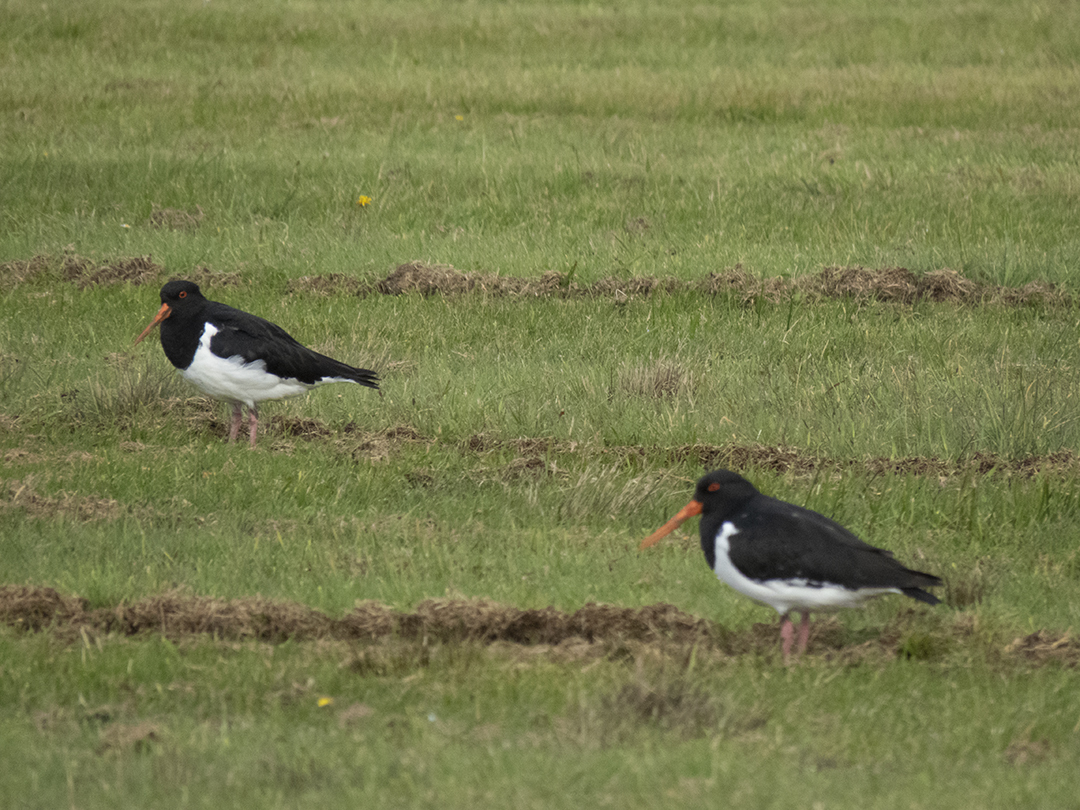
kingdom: Animalia
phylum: Chordata
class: Aves
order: Charadriiformes
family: Haematopodidae
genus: Haematopus
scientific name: Haematopus finschi
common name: South island oystercatcher
